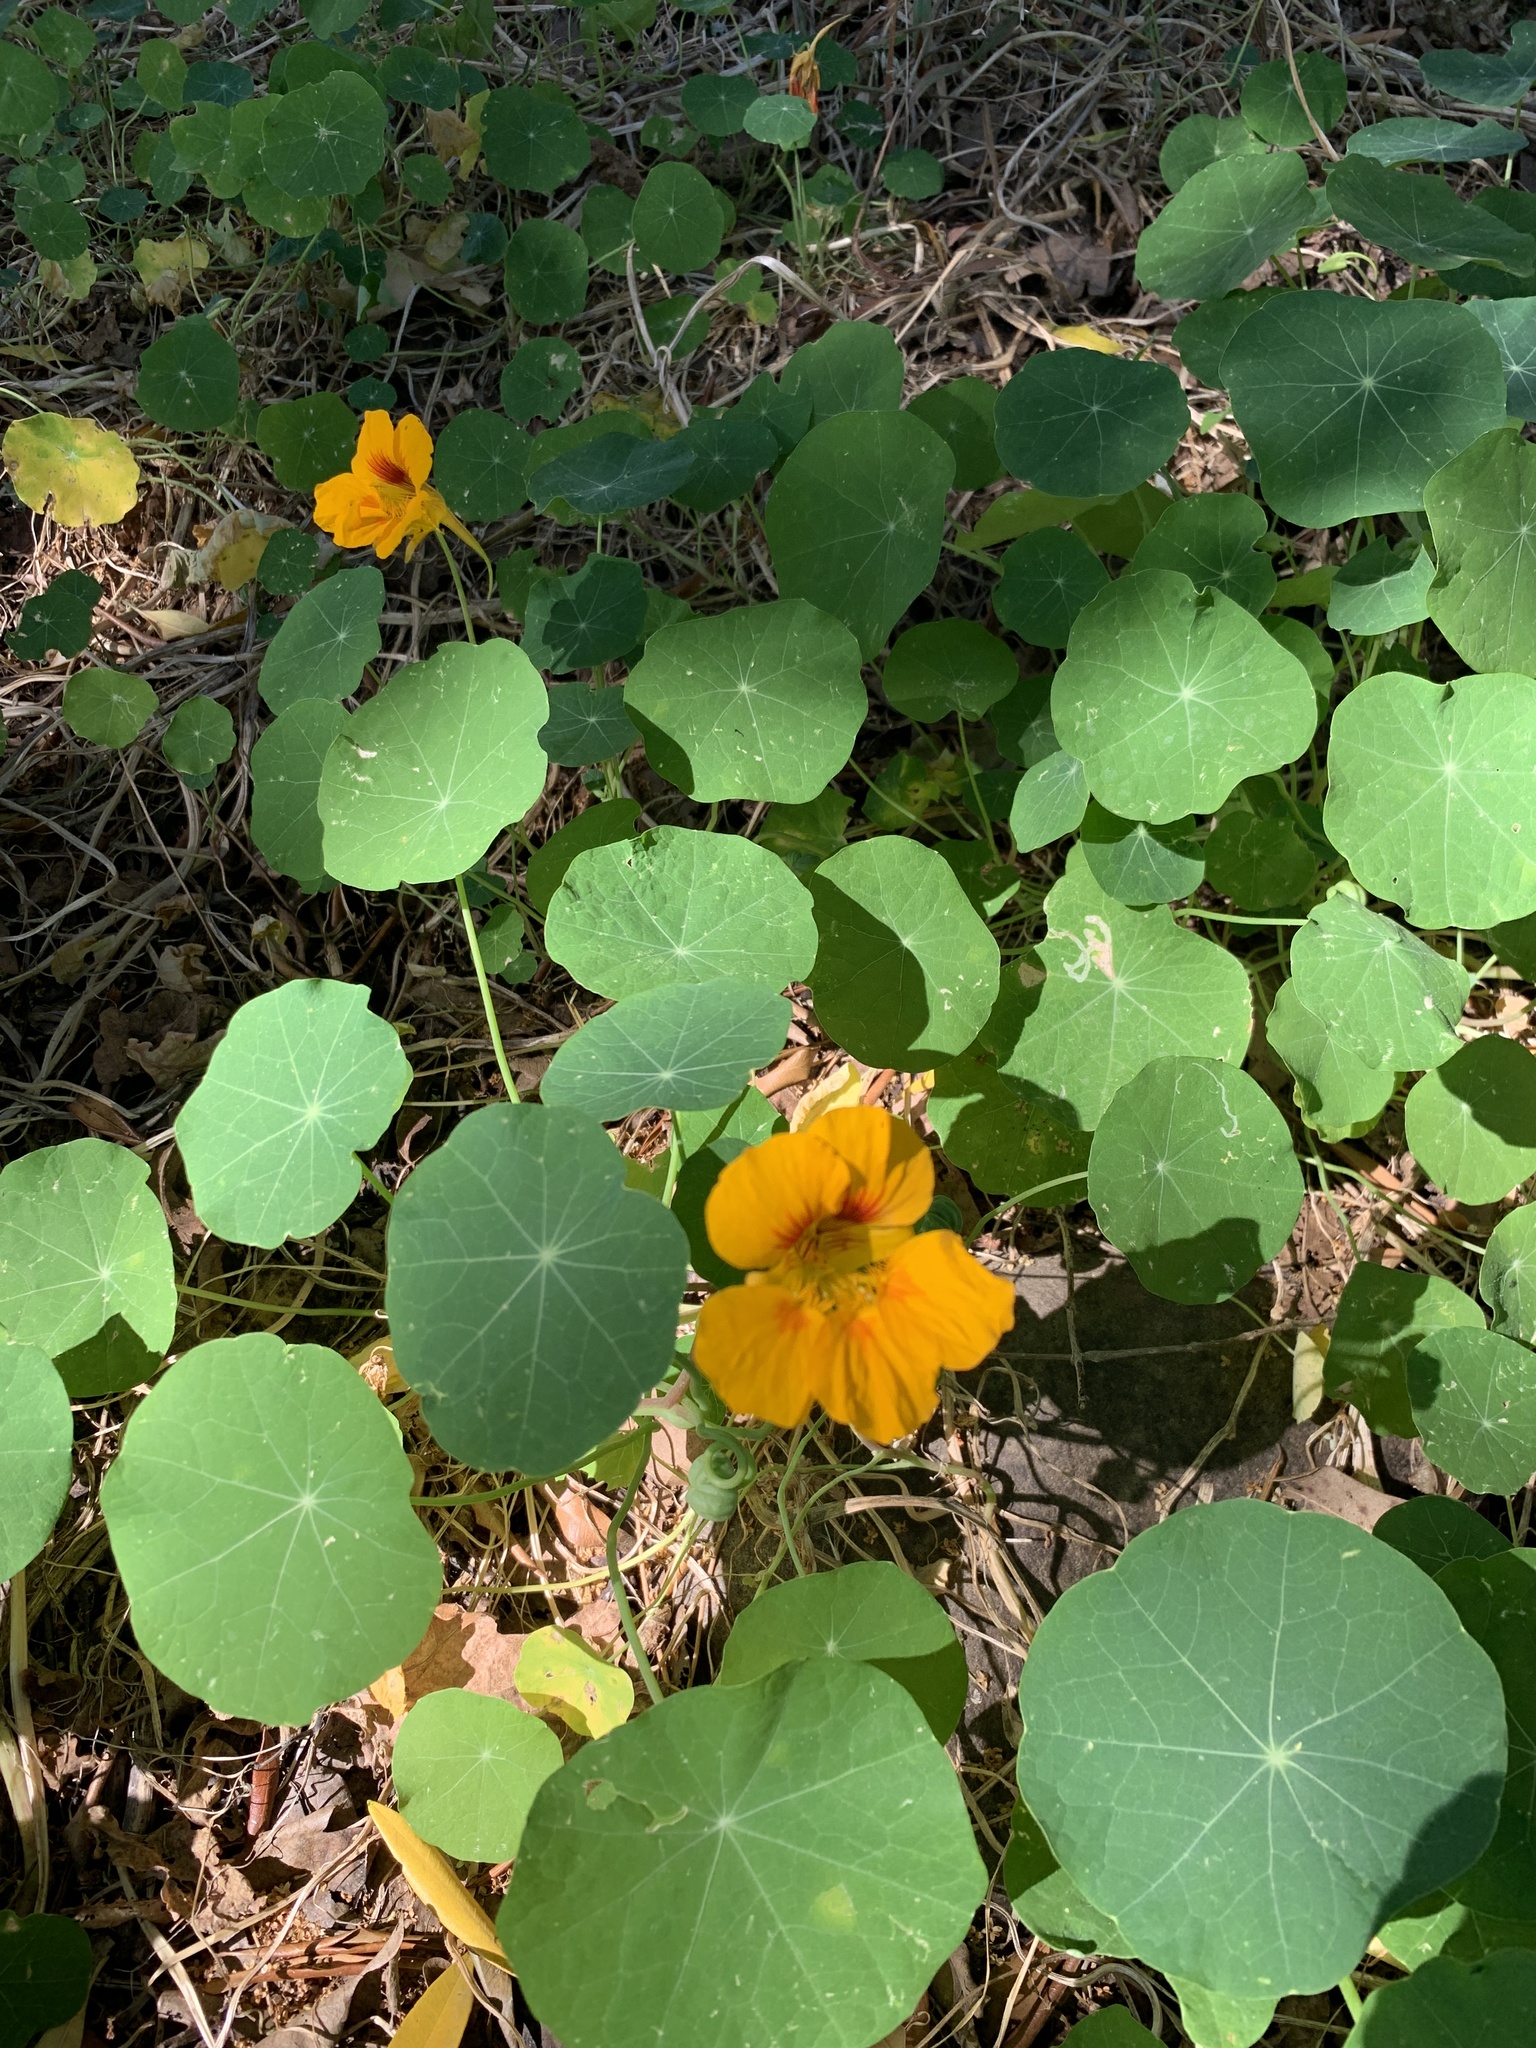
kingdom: Plantae
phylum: Tracheophyta
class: Magnoliopsida
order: Brassicales
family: Tropaeolaceae
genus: Tropaeolum
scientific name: Tropaeolum majus
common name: Nasturtium
